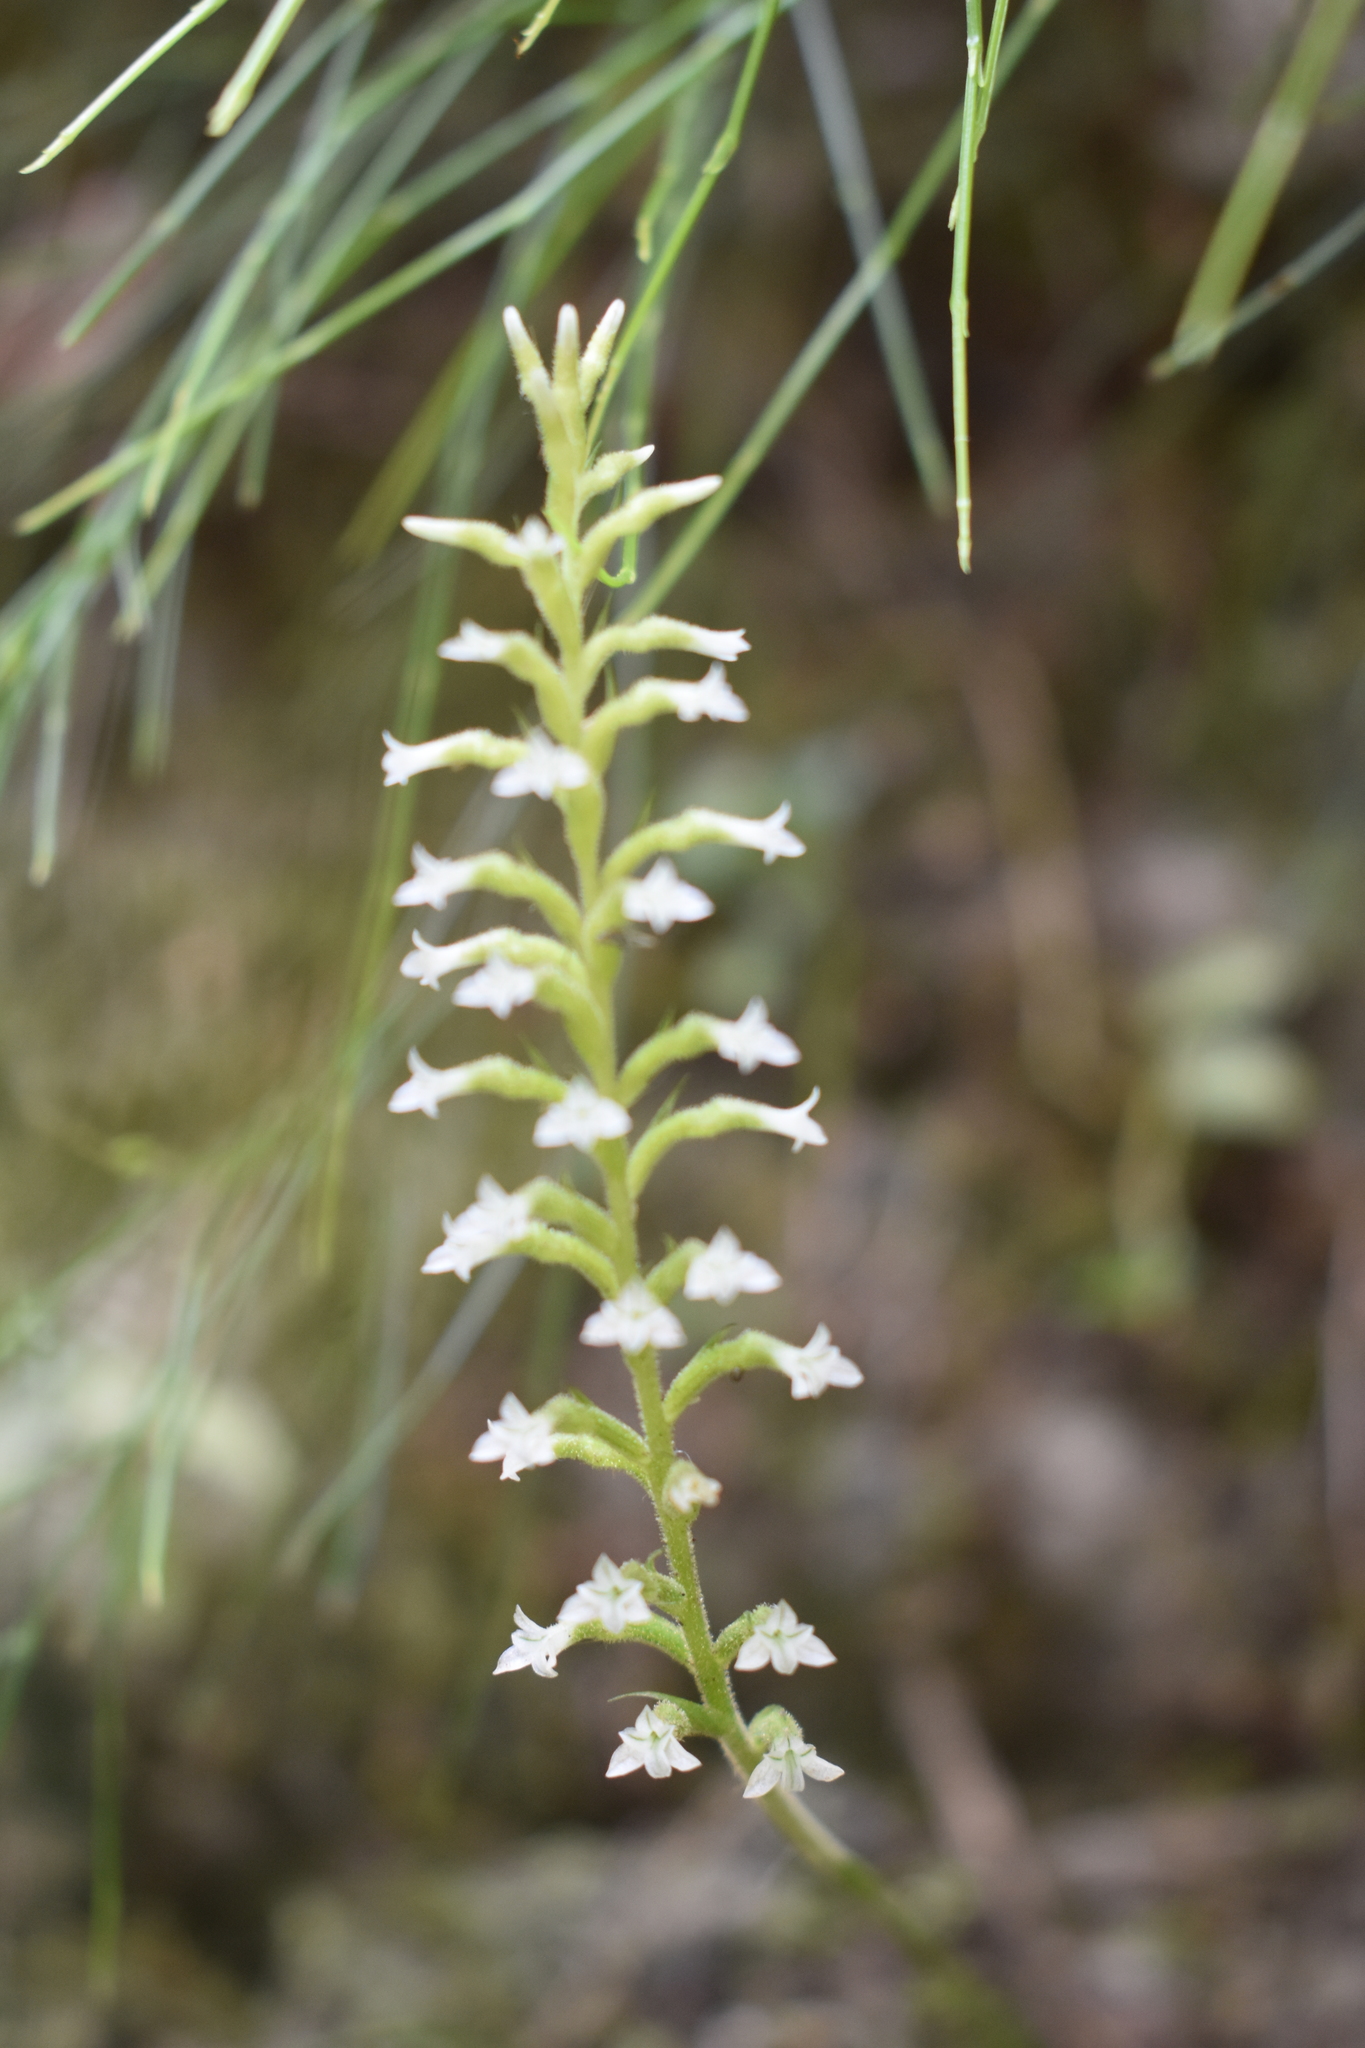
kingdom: Plantae
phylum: Tracheophyta
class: Liliopsida
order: Asparagales
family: Orchidaceae
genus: Beloglottis
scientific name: Beloglottis costaricensis
